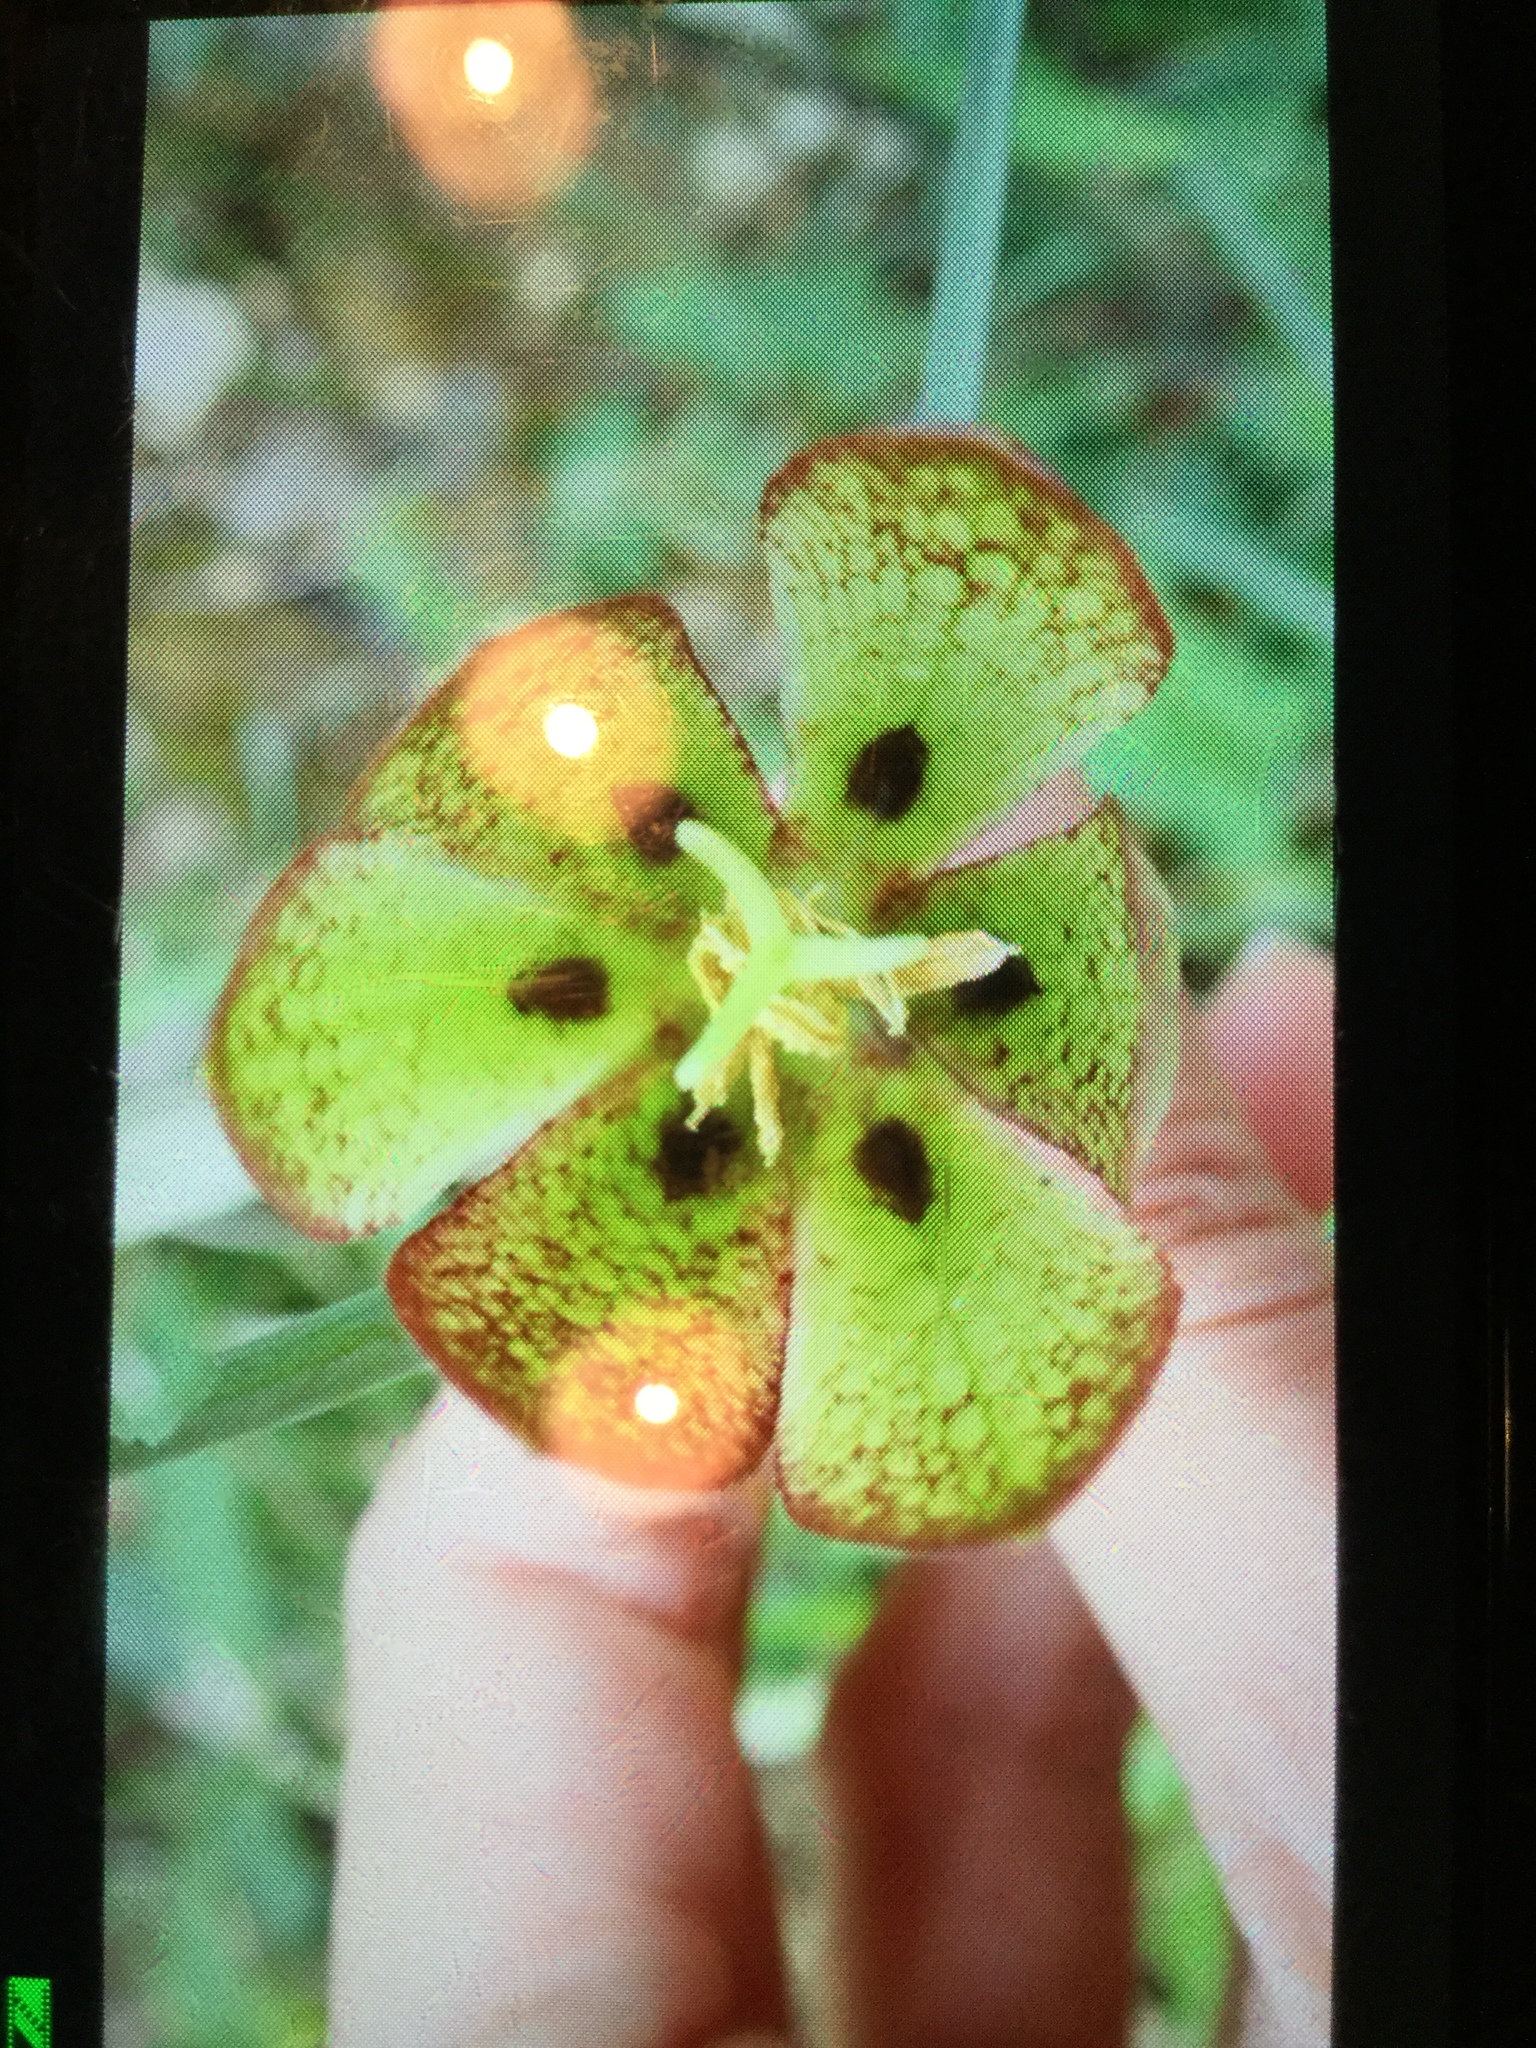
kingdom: Plantae
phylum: Tracheophyta
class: Liliopsida
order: Liliales
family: Liliaceae
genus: Fritillaria
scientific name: Fritillaria involucrata
